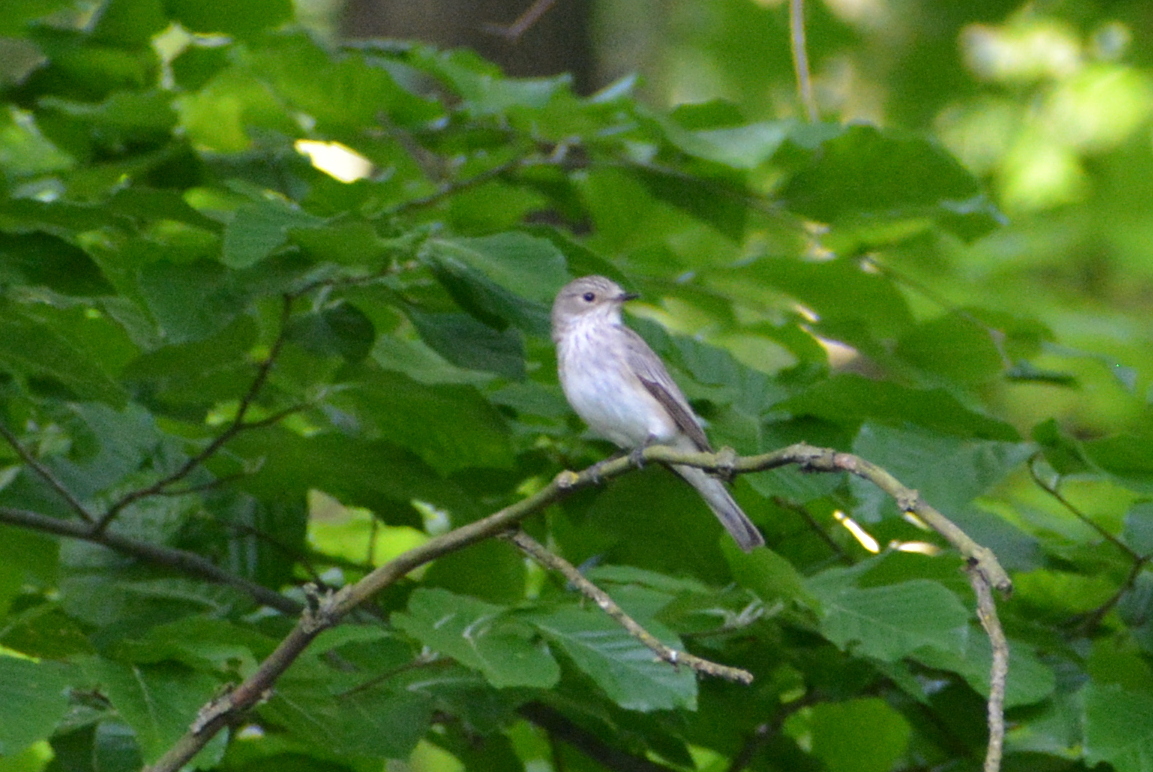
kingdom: Animalia
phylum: Chordata
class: Aves
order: Passeriformes
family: Muscicapidae
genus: Muscicapa
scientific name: Muscicapa striata
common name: Spotted flycatcher
